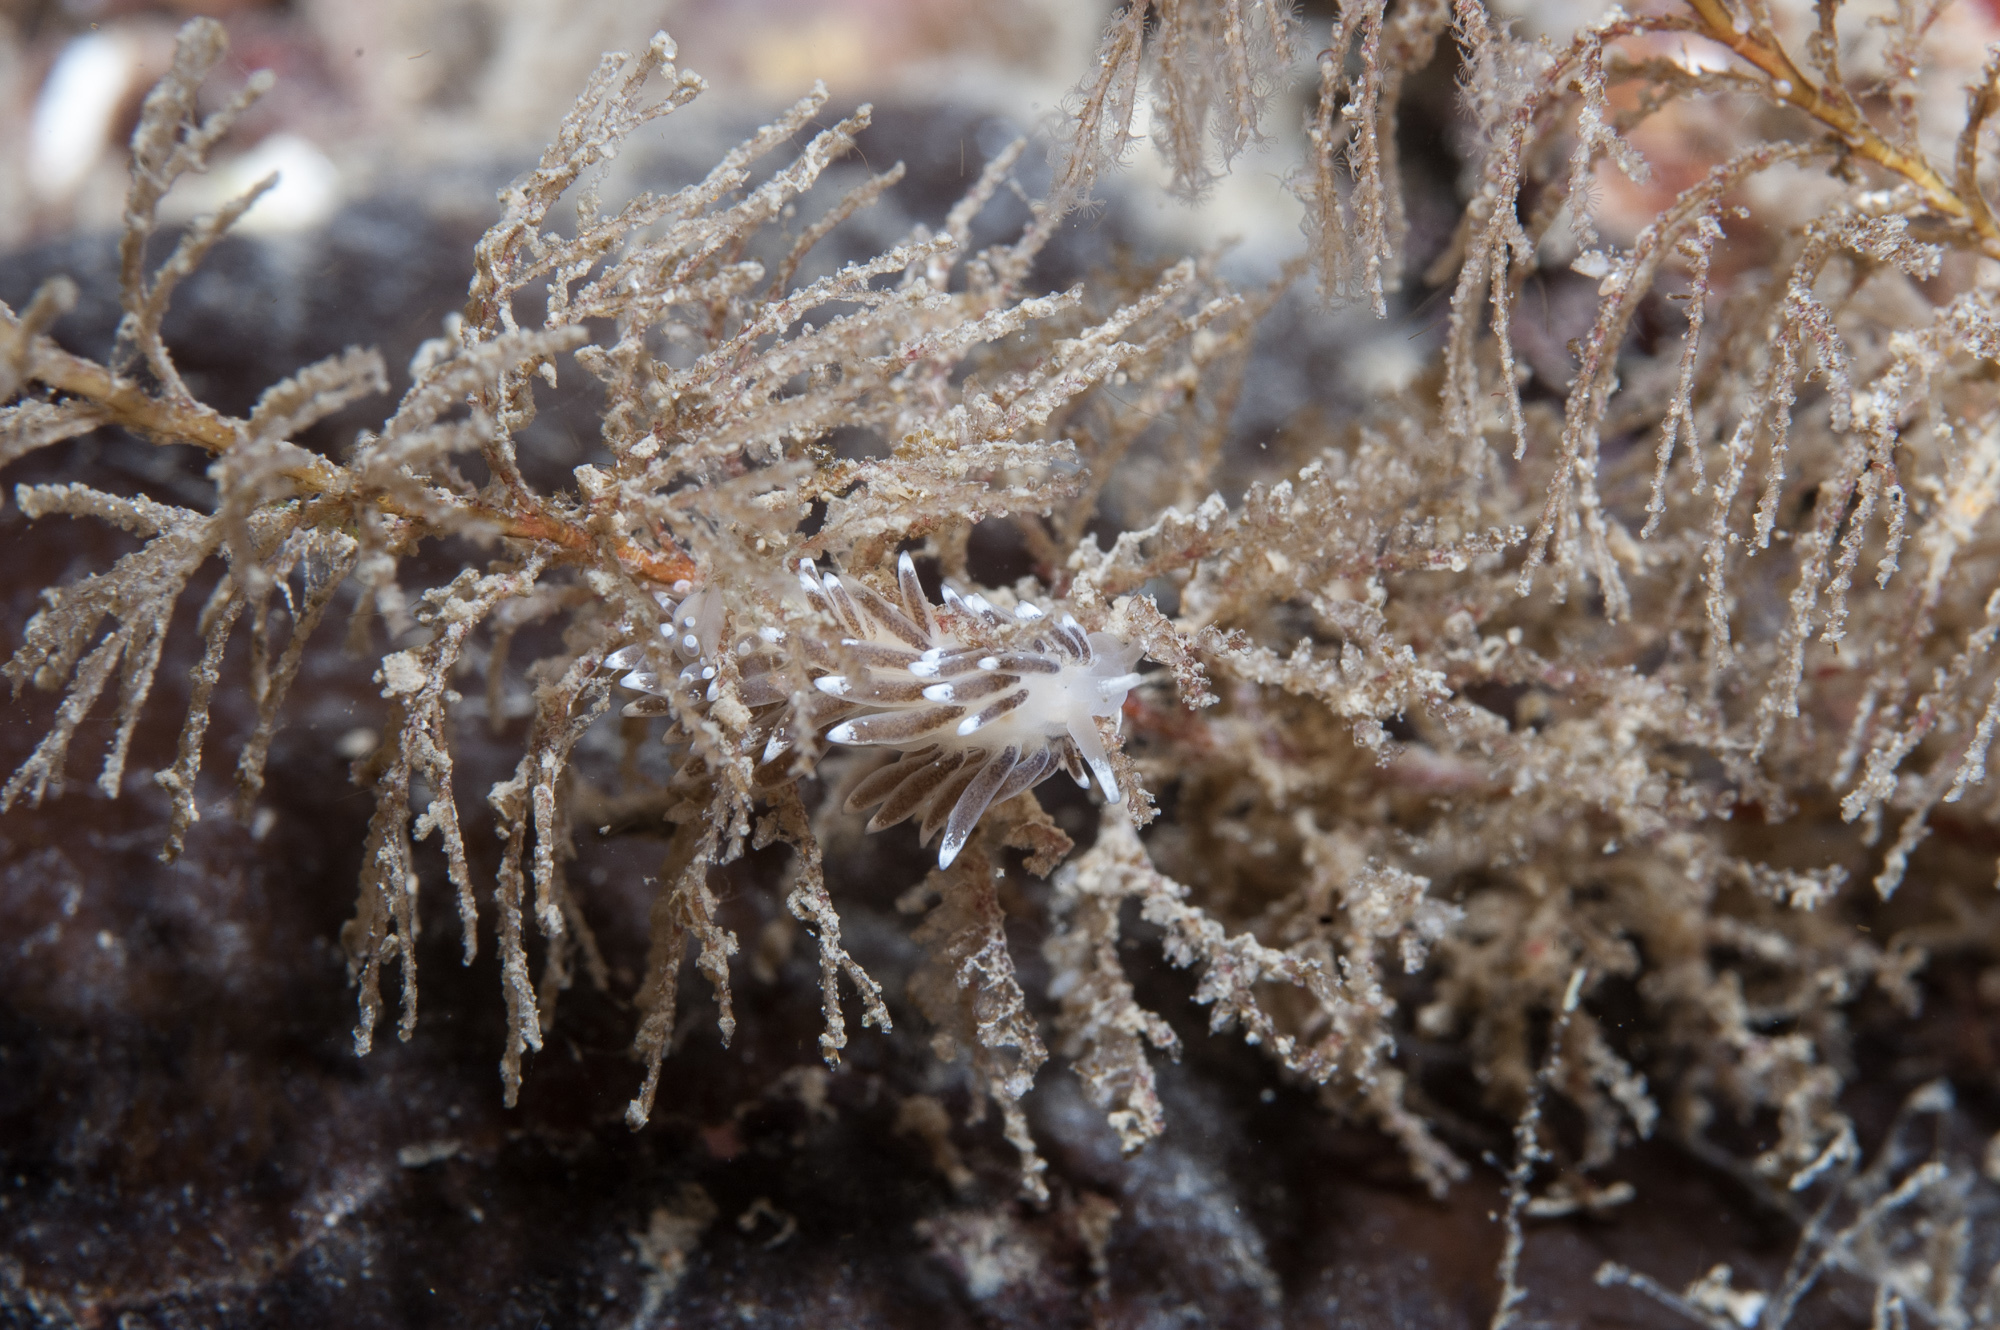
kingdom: Animalia
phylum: Mollusca
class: Gastropoda
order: Nudibranchia
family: Cuthonellidae
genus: Cuthonella
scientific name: Cuthonella concinna
